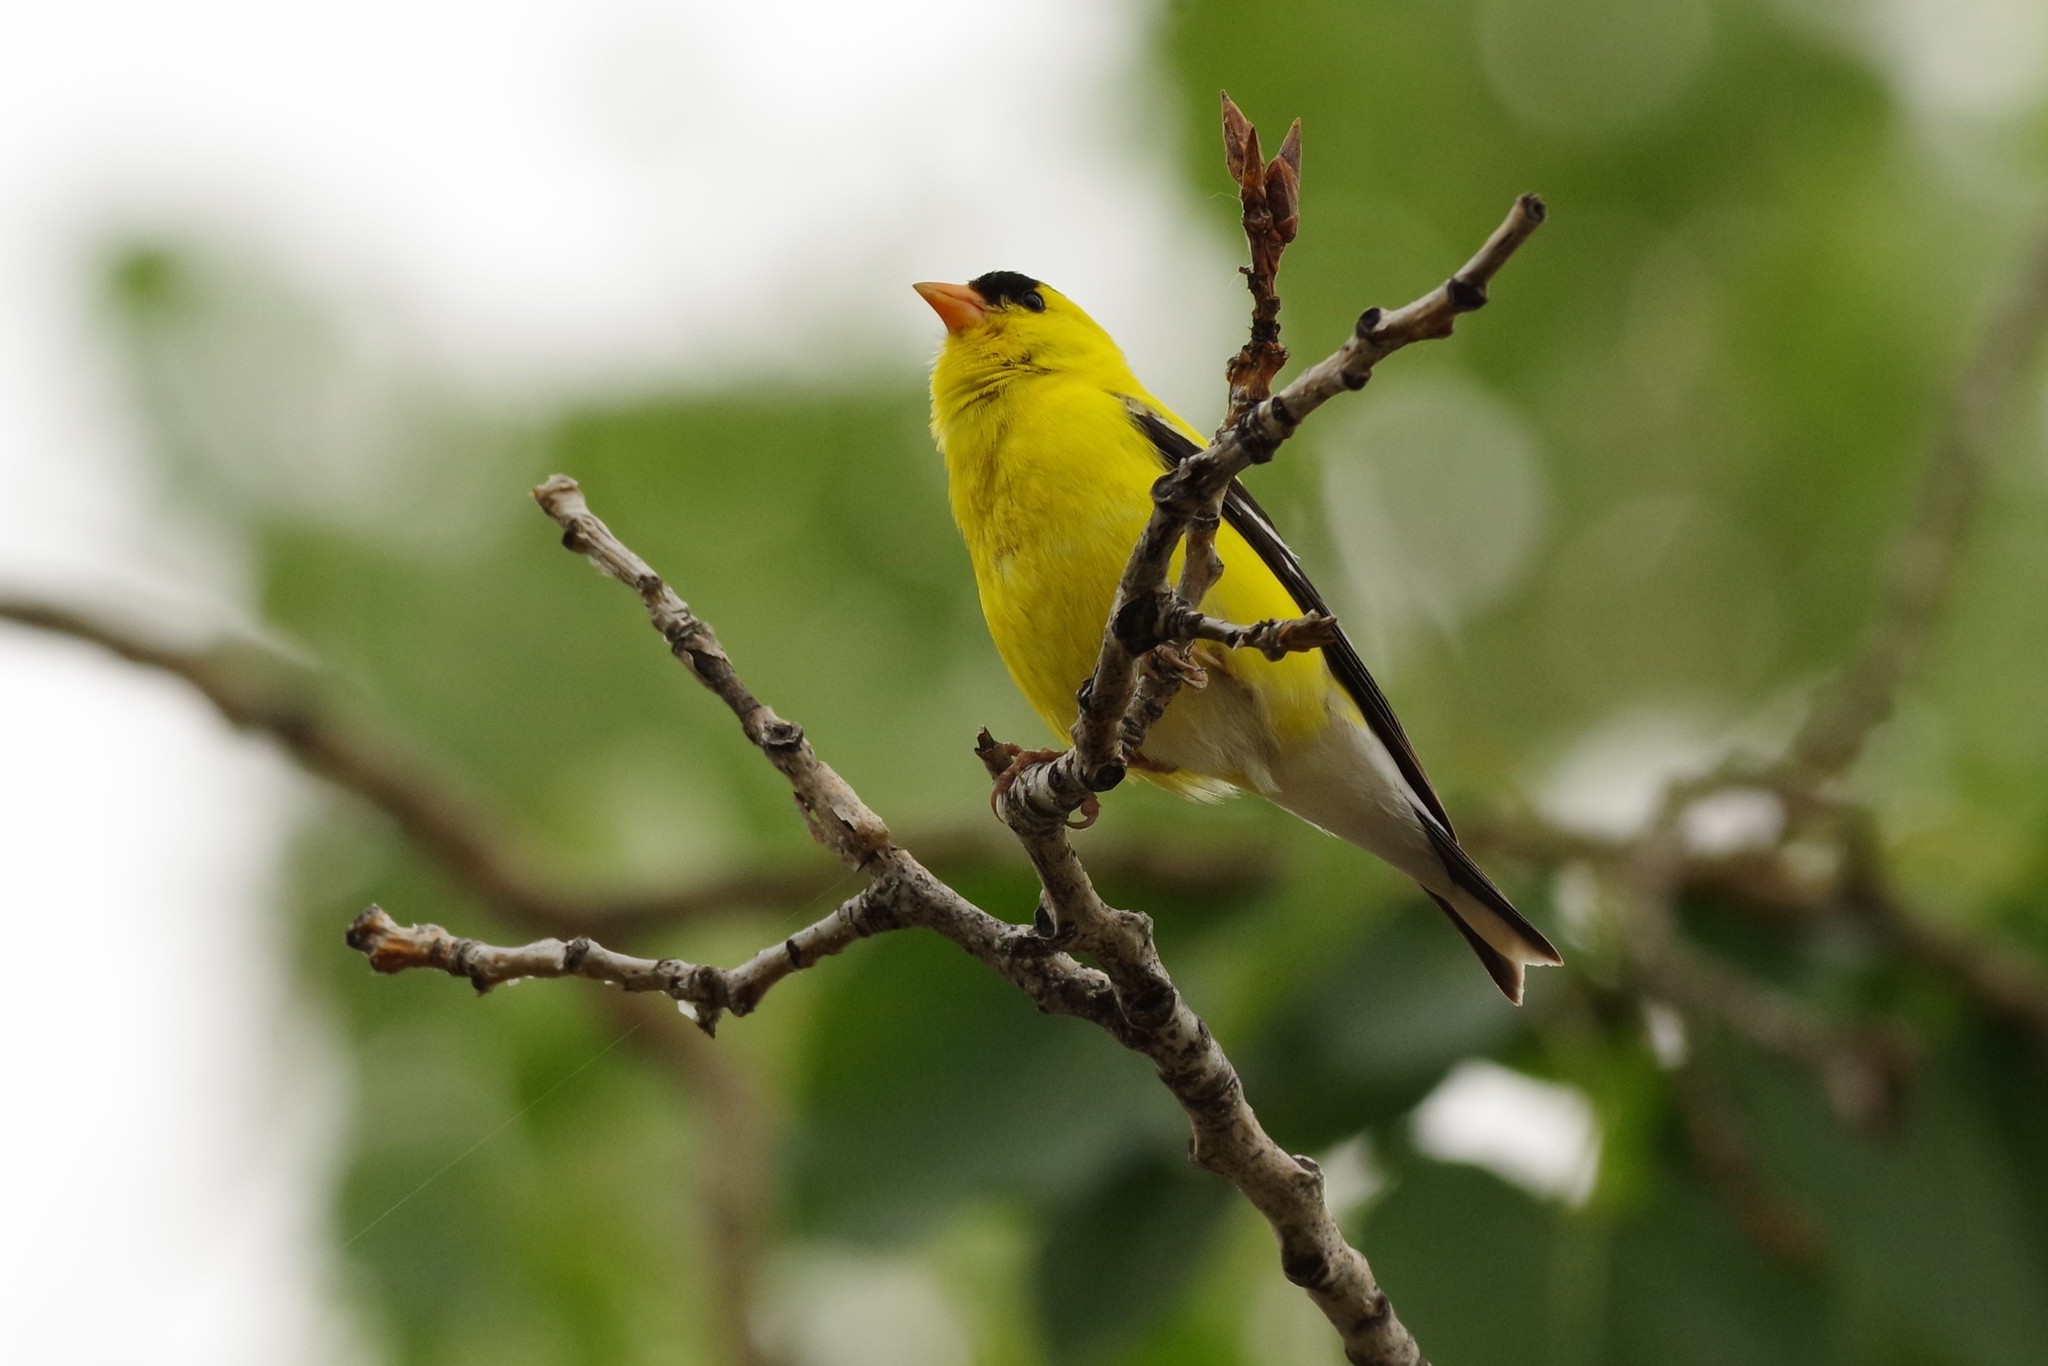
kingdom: Animalia
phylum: Chordata
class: Aves
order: Passeriformes
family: Fringillidae
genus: Spinus
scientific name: Spinus tristis
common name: American goldfinch
